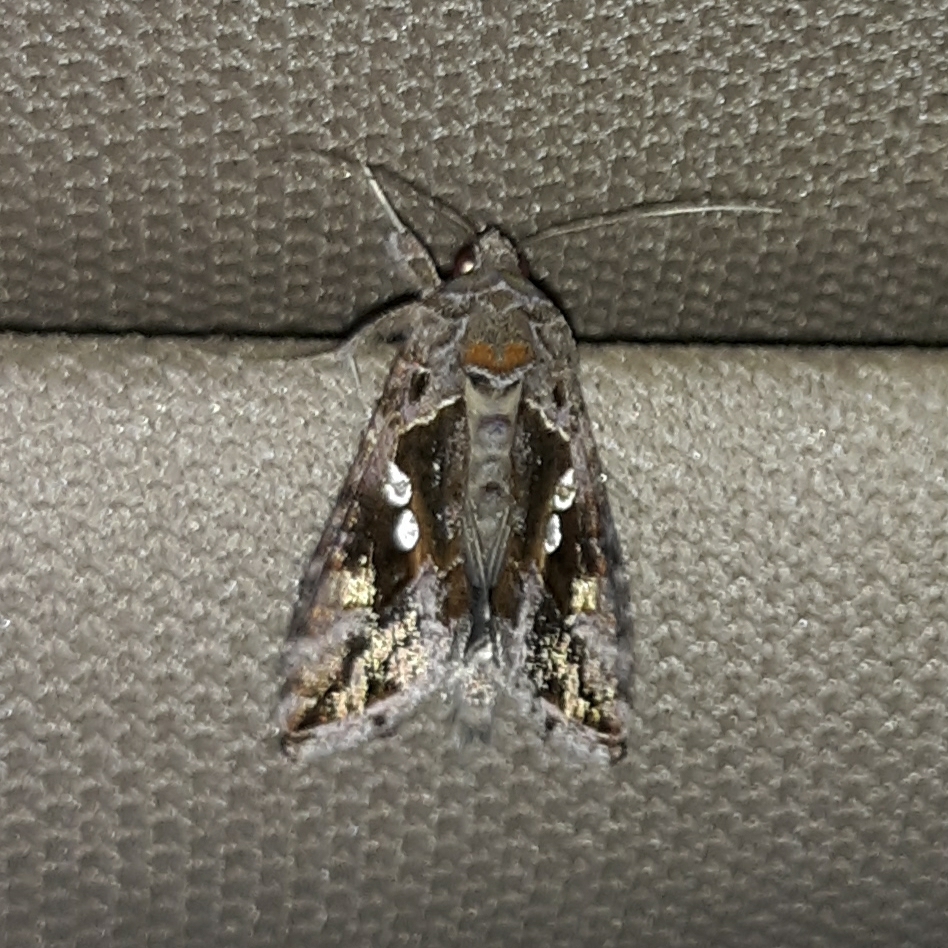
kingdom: Animalia
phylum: Arthropoda
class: Insecta
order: Lepidoptera
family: Noctuidae
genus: Chrysodeixis
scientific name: Chrysodeixis includens
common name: Cutworm moth
